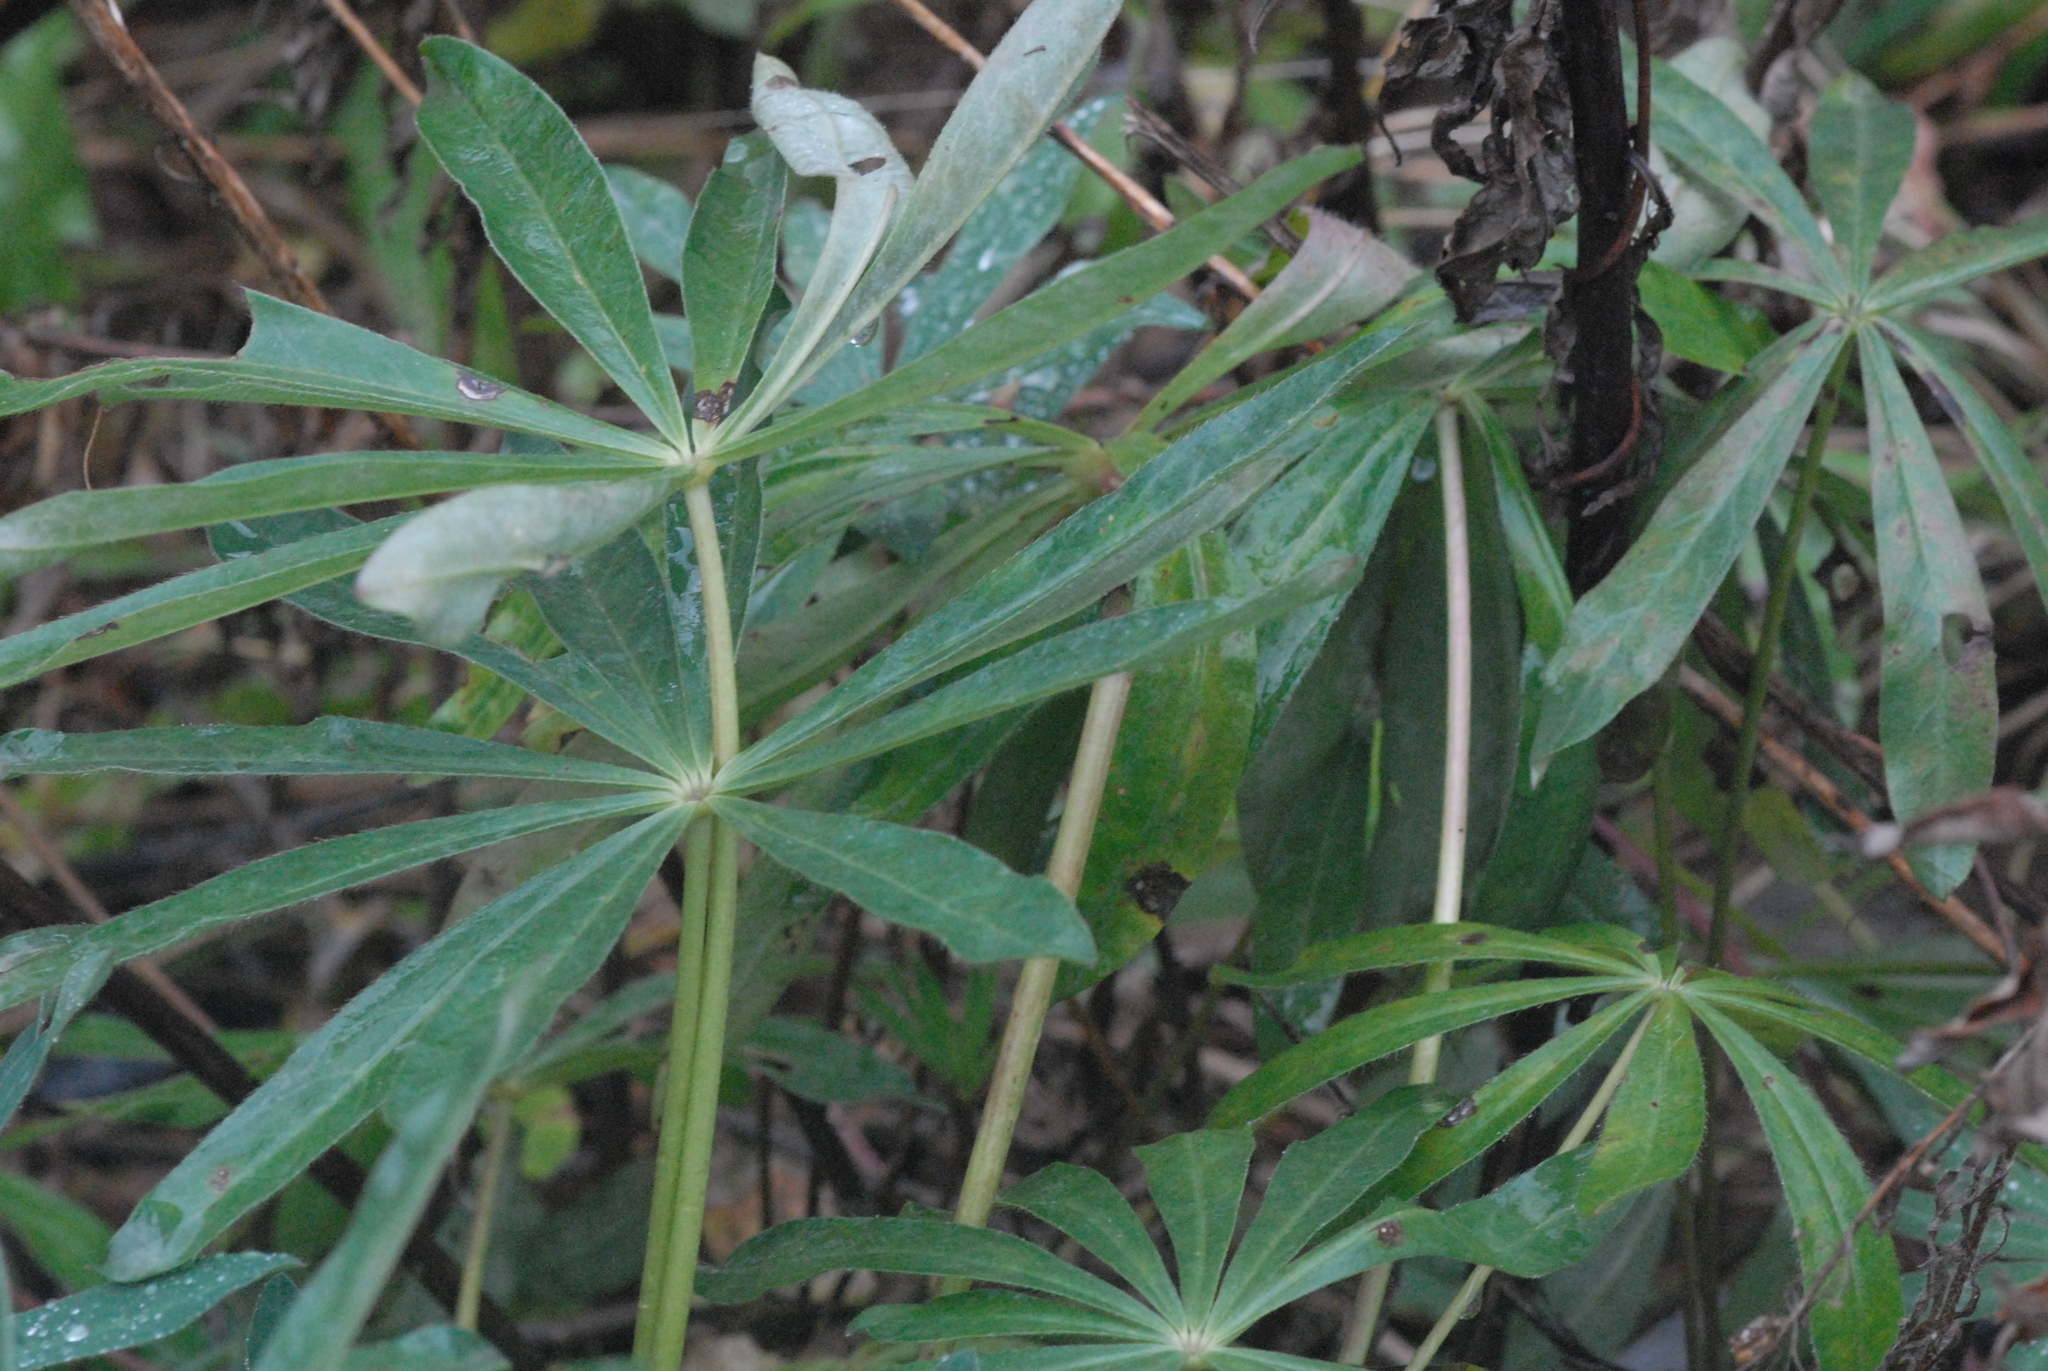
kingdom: Plantae
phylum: Tracheophyta
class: Magnoliopsida
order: Fabales
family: Fabaceae
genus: Lupinus
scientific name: Lupinus polyphyllus
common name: Garden lupin
